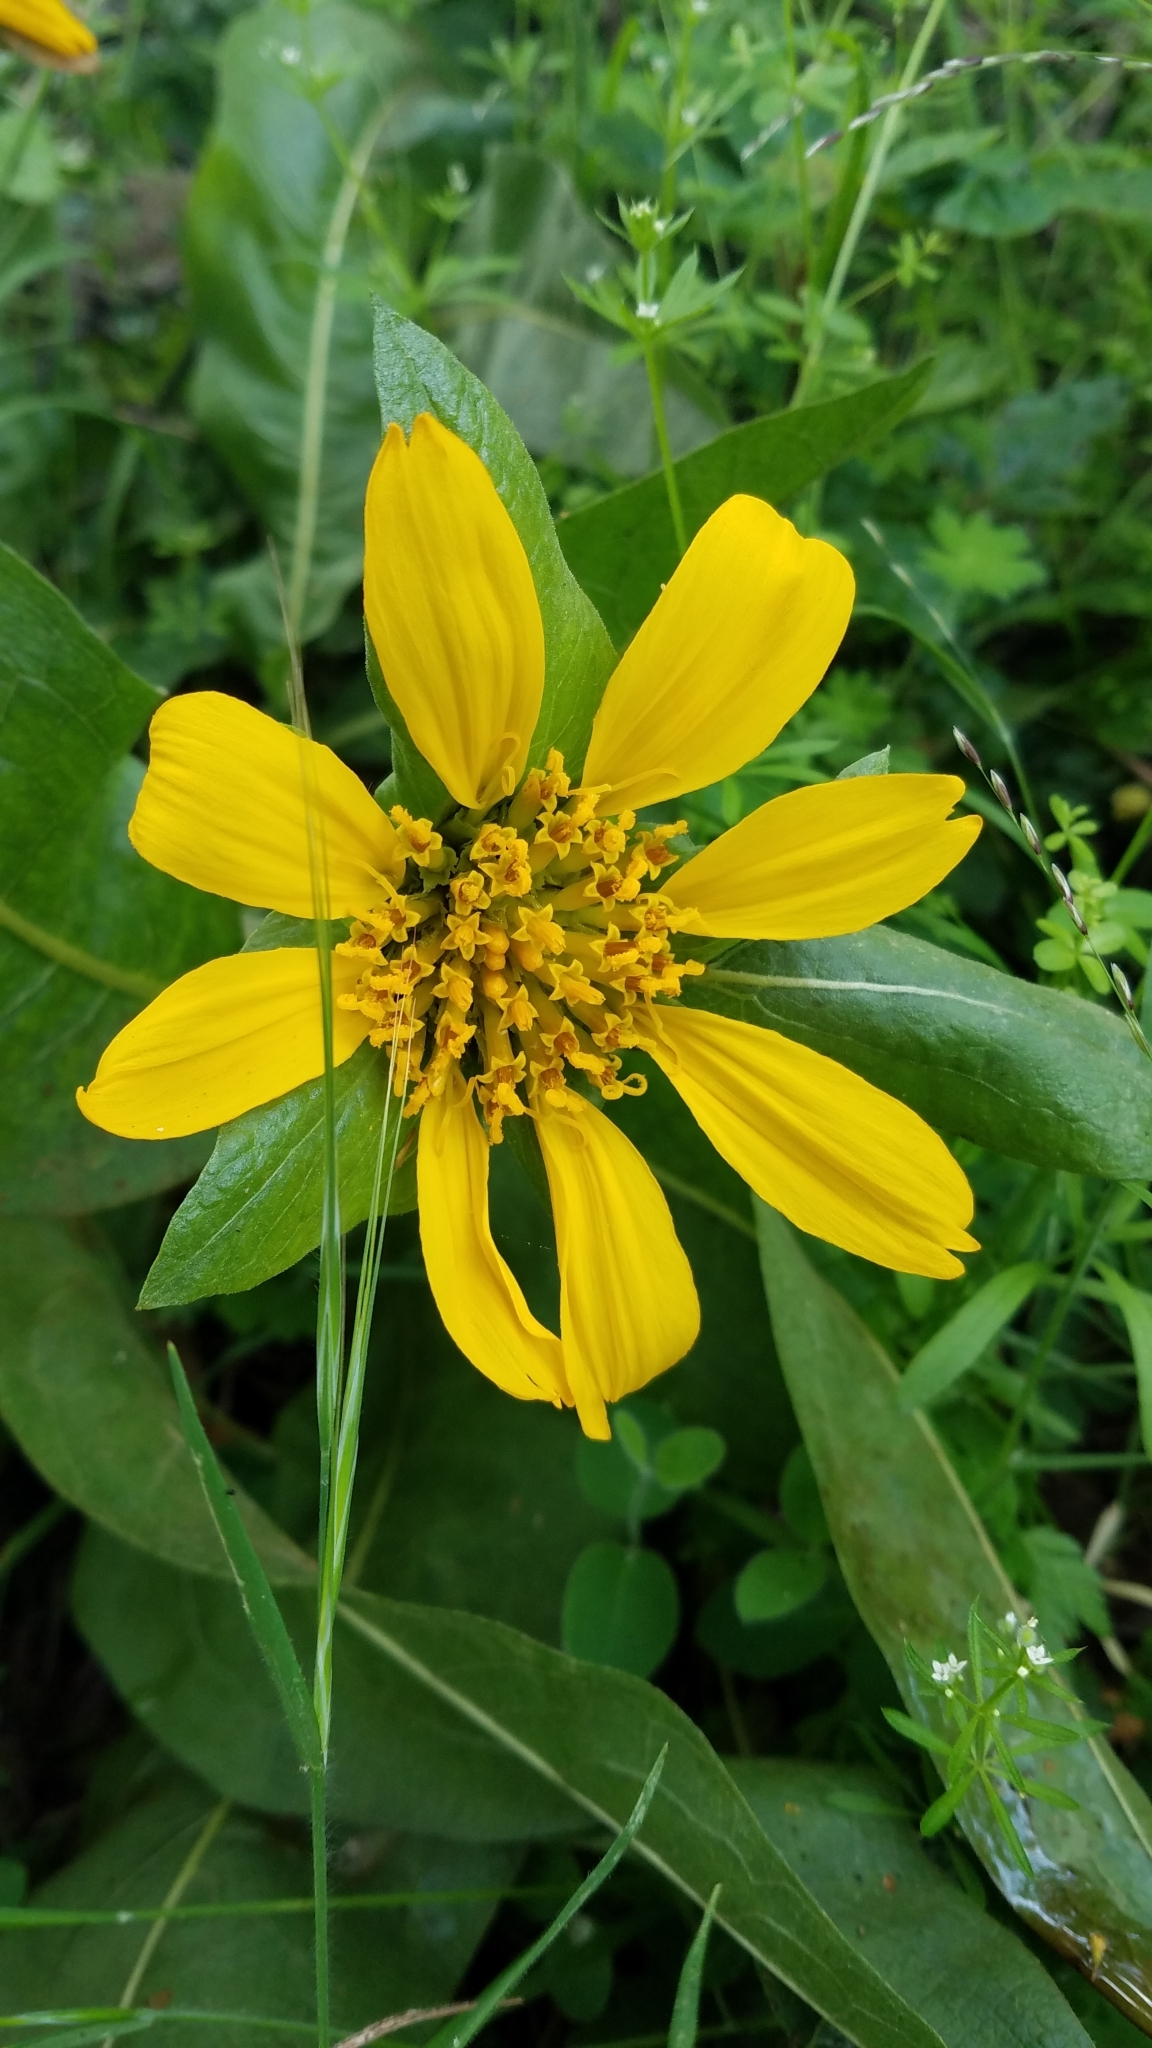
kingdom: Plantae
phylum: Tracheophyta
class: Magnoliopsida
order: Asterales
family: Asteraceae
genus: Wyethia
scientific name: Wyethia glabra
